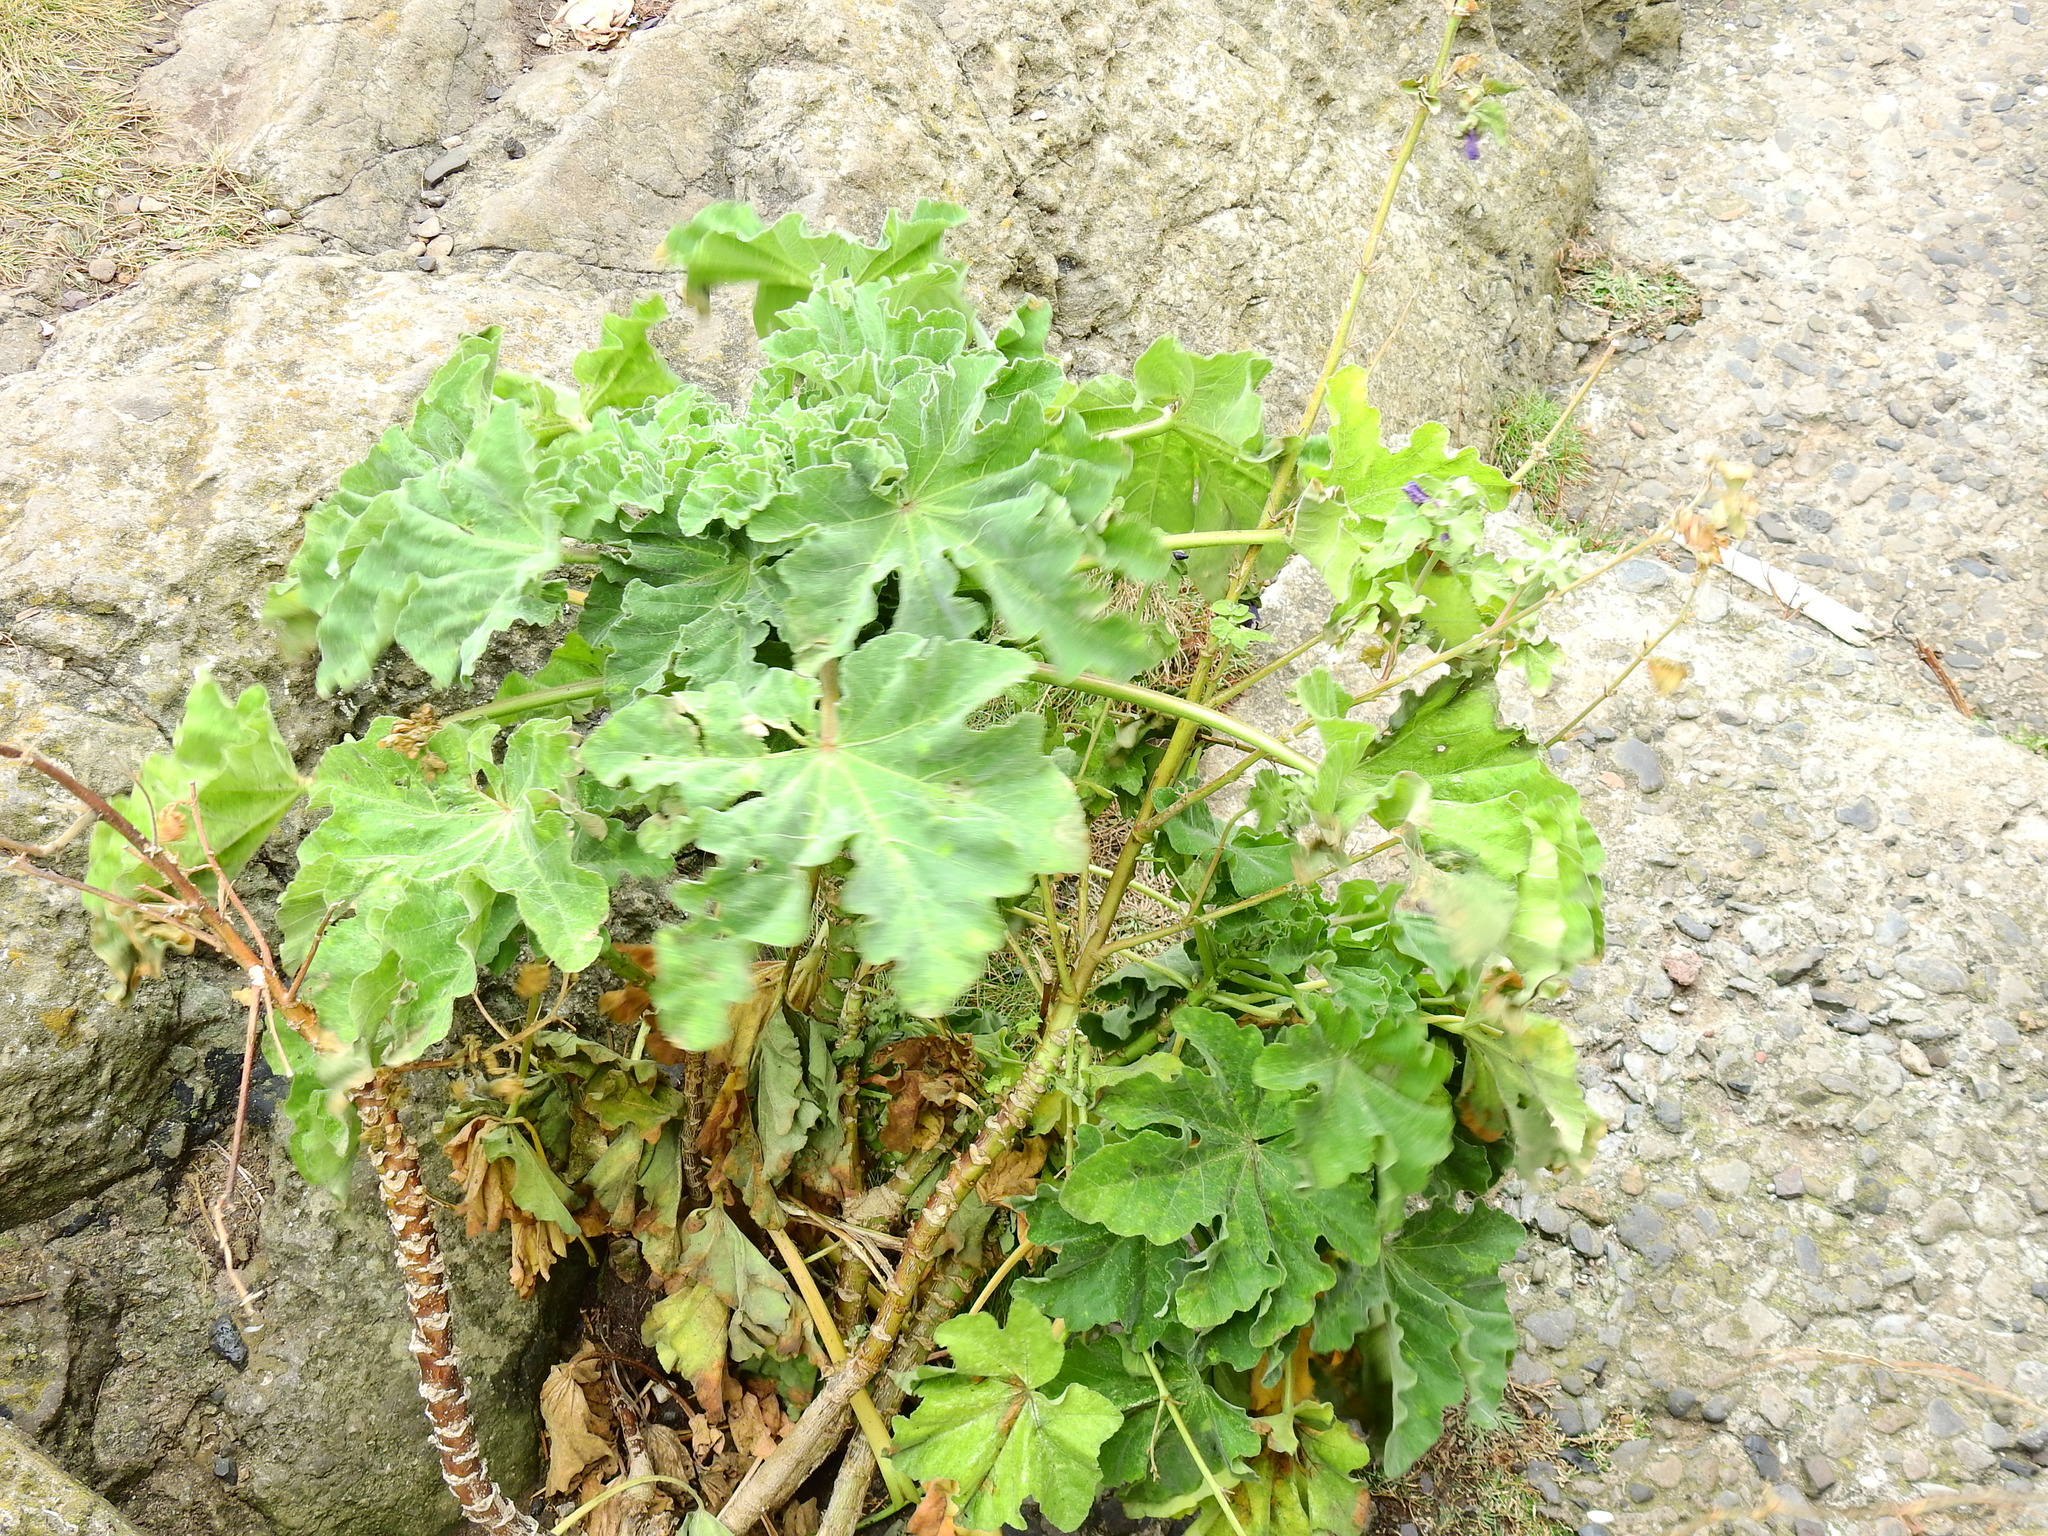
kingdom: Plantae
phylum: Tracheophyta
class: Magnoliopsida
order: Malvales
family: Malvaceae
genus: Malva
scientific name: Malva arborea
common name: Tree mallow
